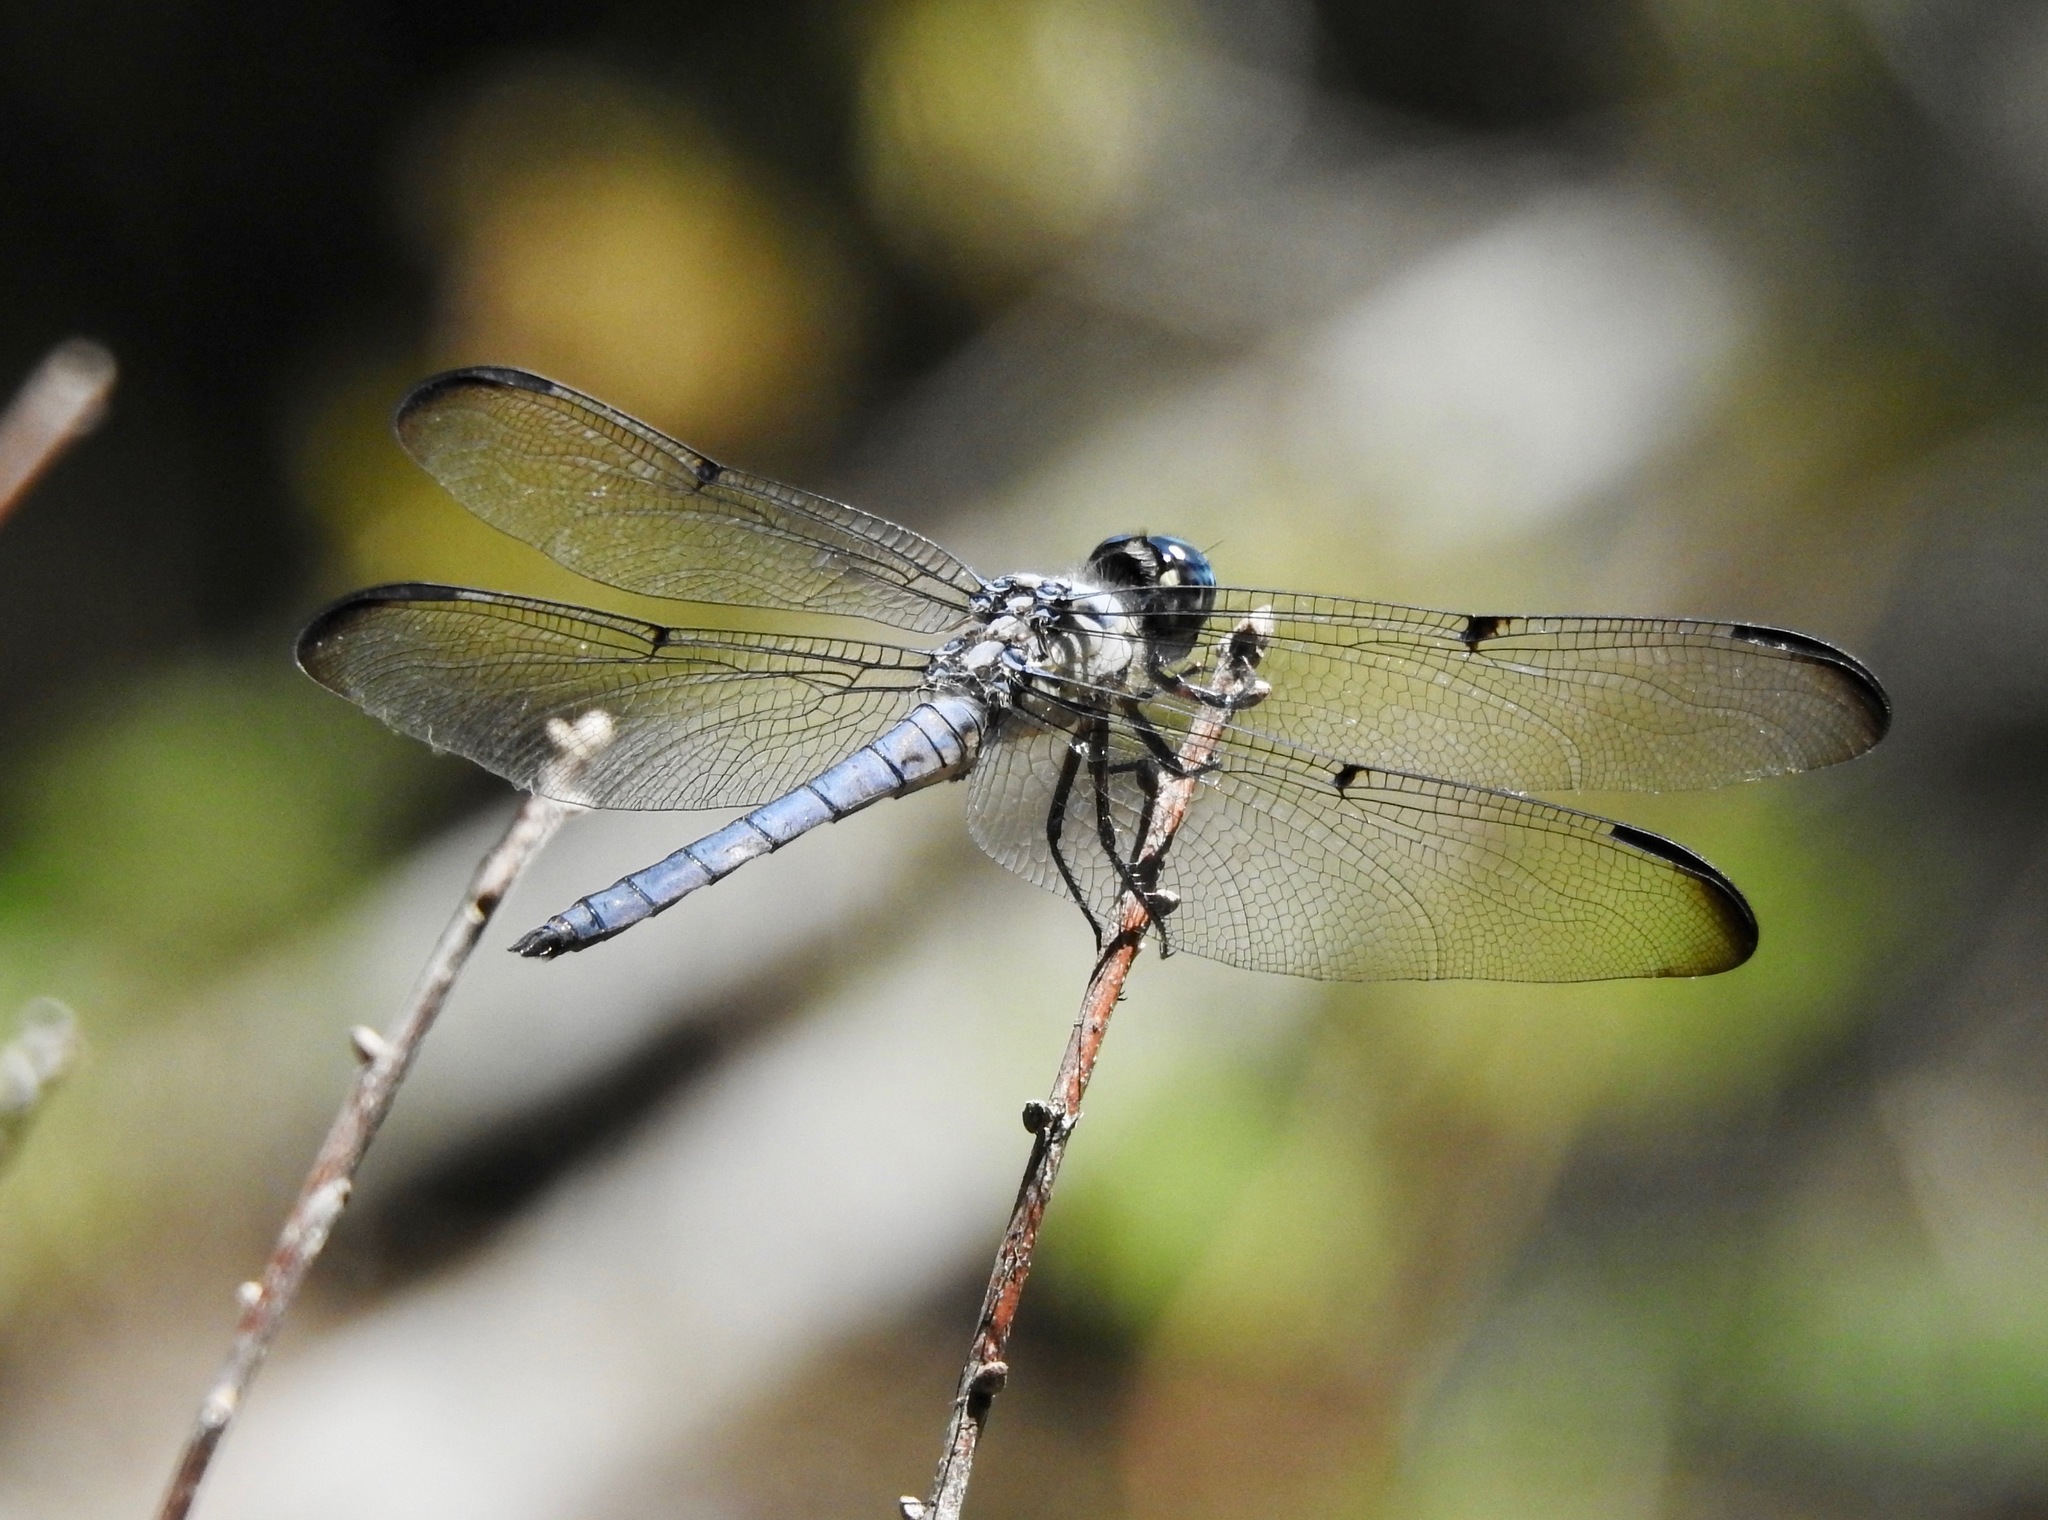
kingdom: Animalia
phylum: Arthropoda
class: Insecta
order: Odonata
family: Libellulidae
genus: Libellula
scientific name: Libellula vibrans
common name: Great blue skimmer
